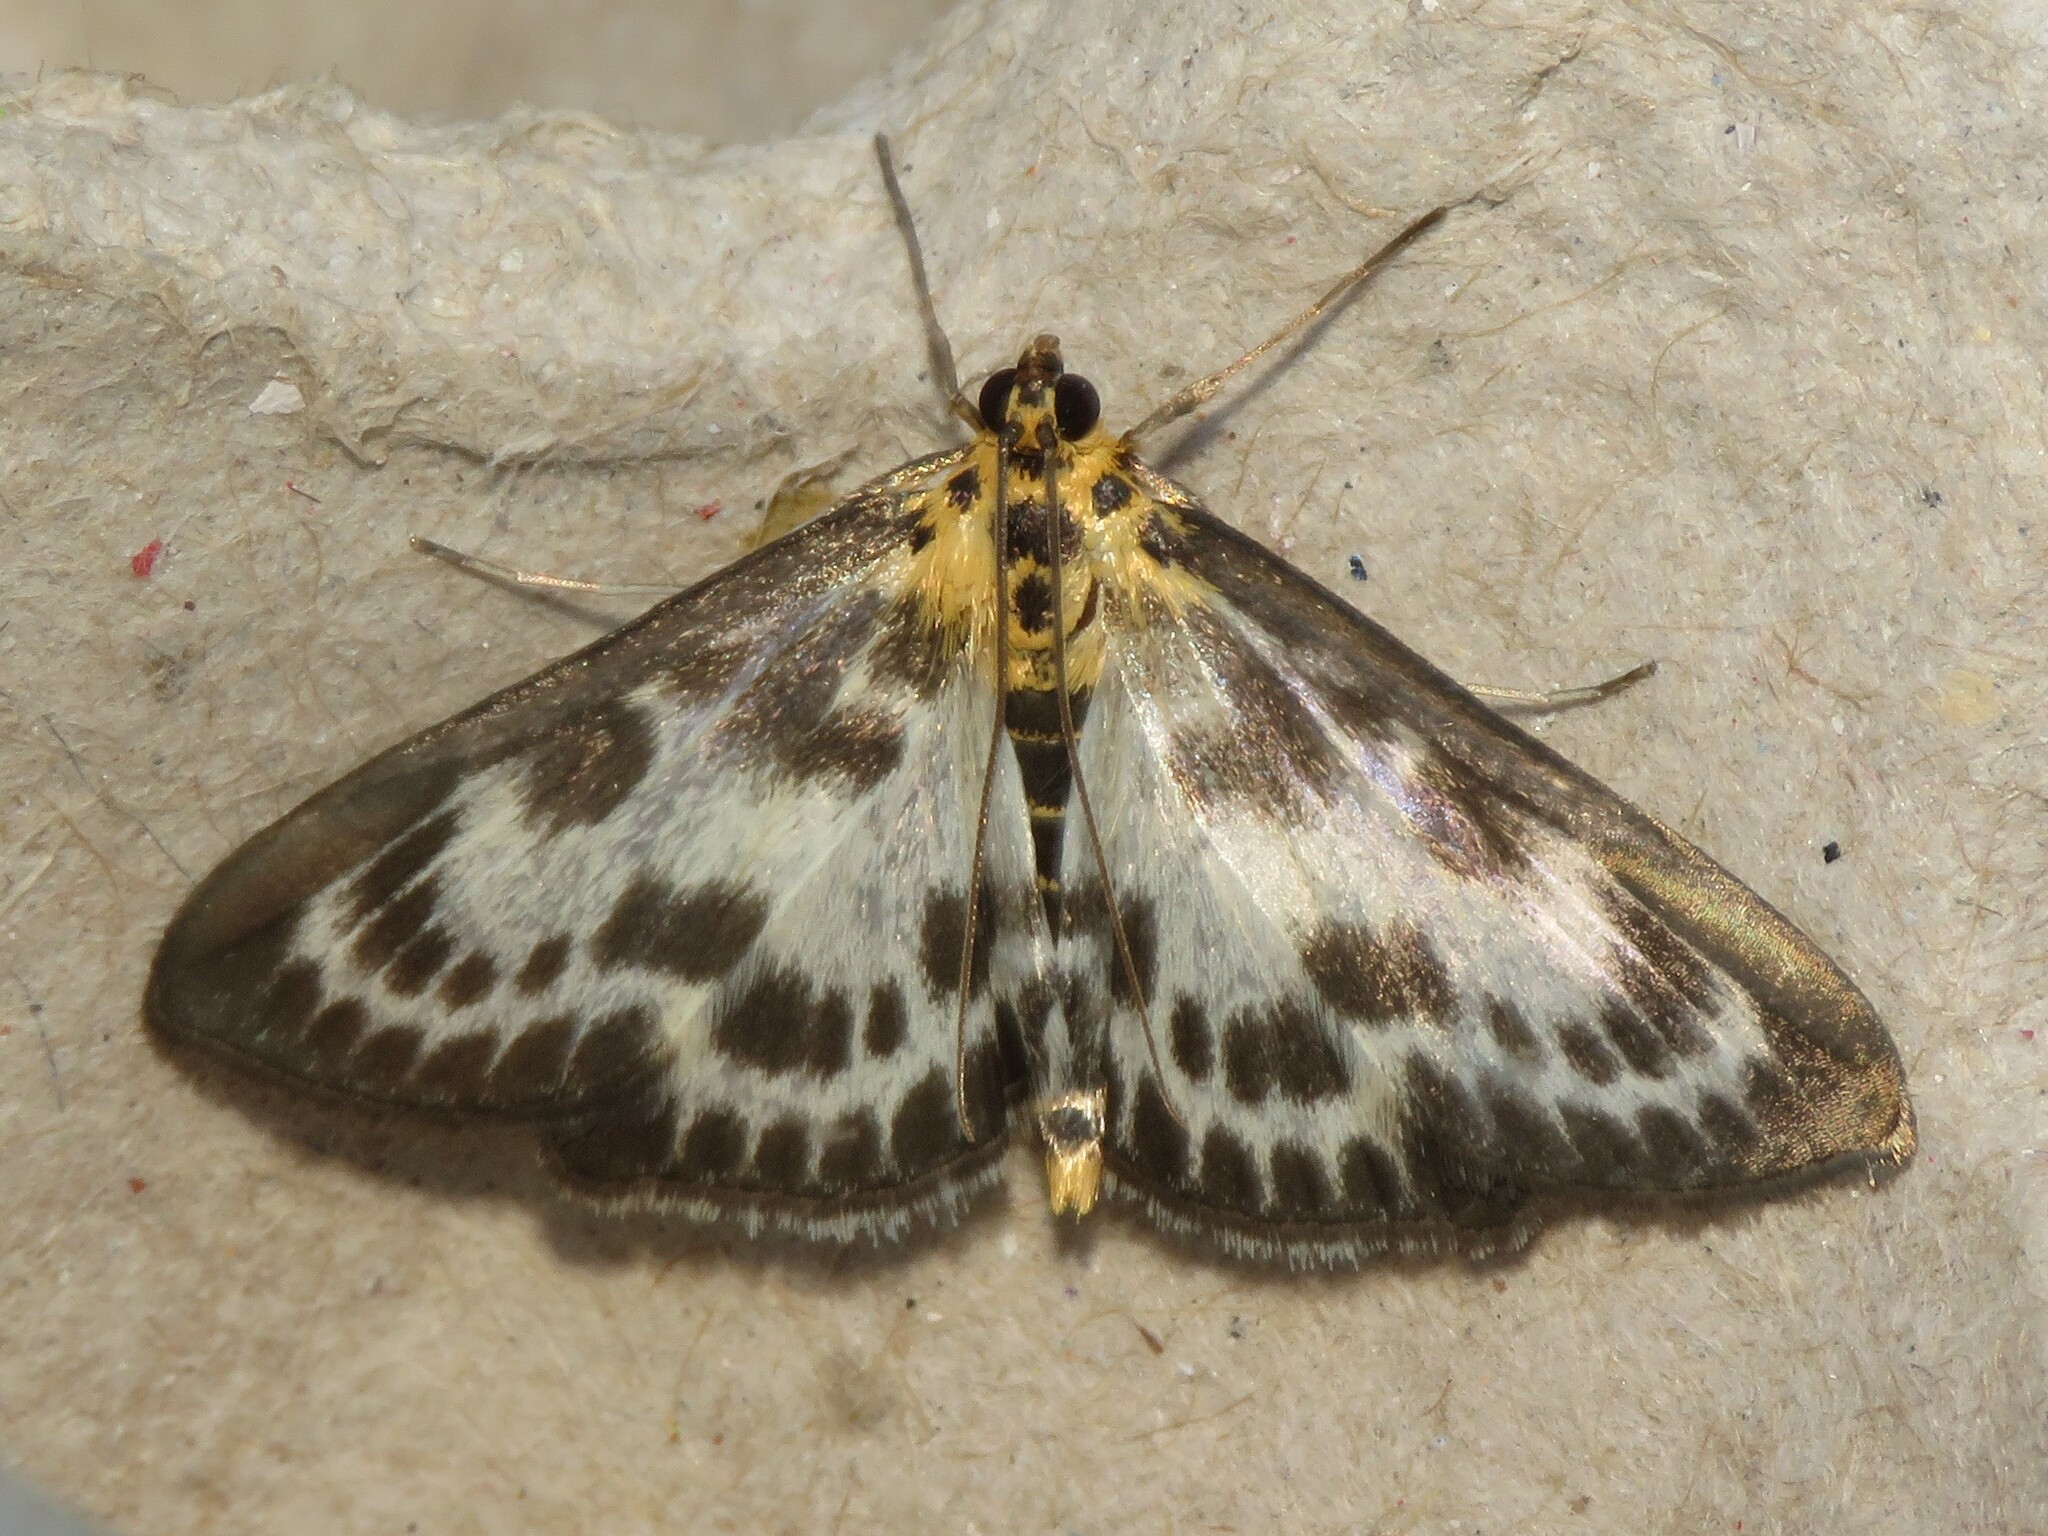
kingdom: Animalia
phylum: Arthropoda
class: Insecta
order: Lepidoptera
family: Crambidae
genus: Anania
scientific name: Anania hortulata
